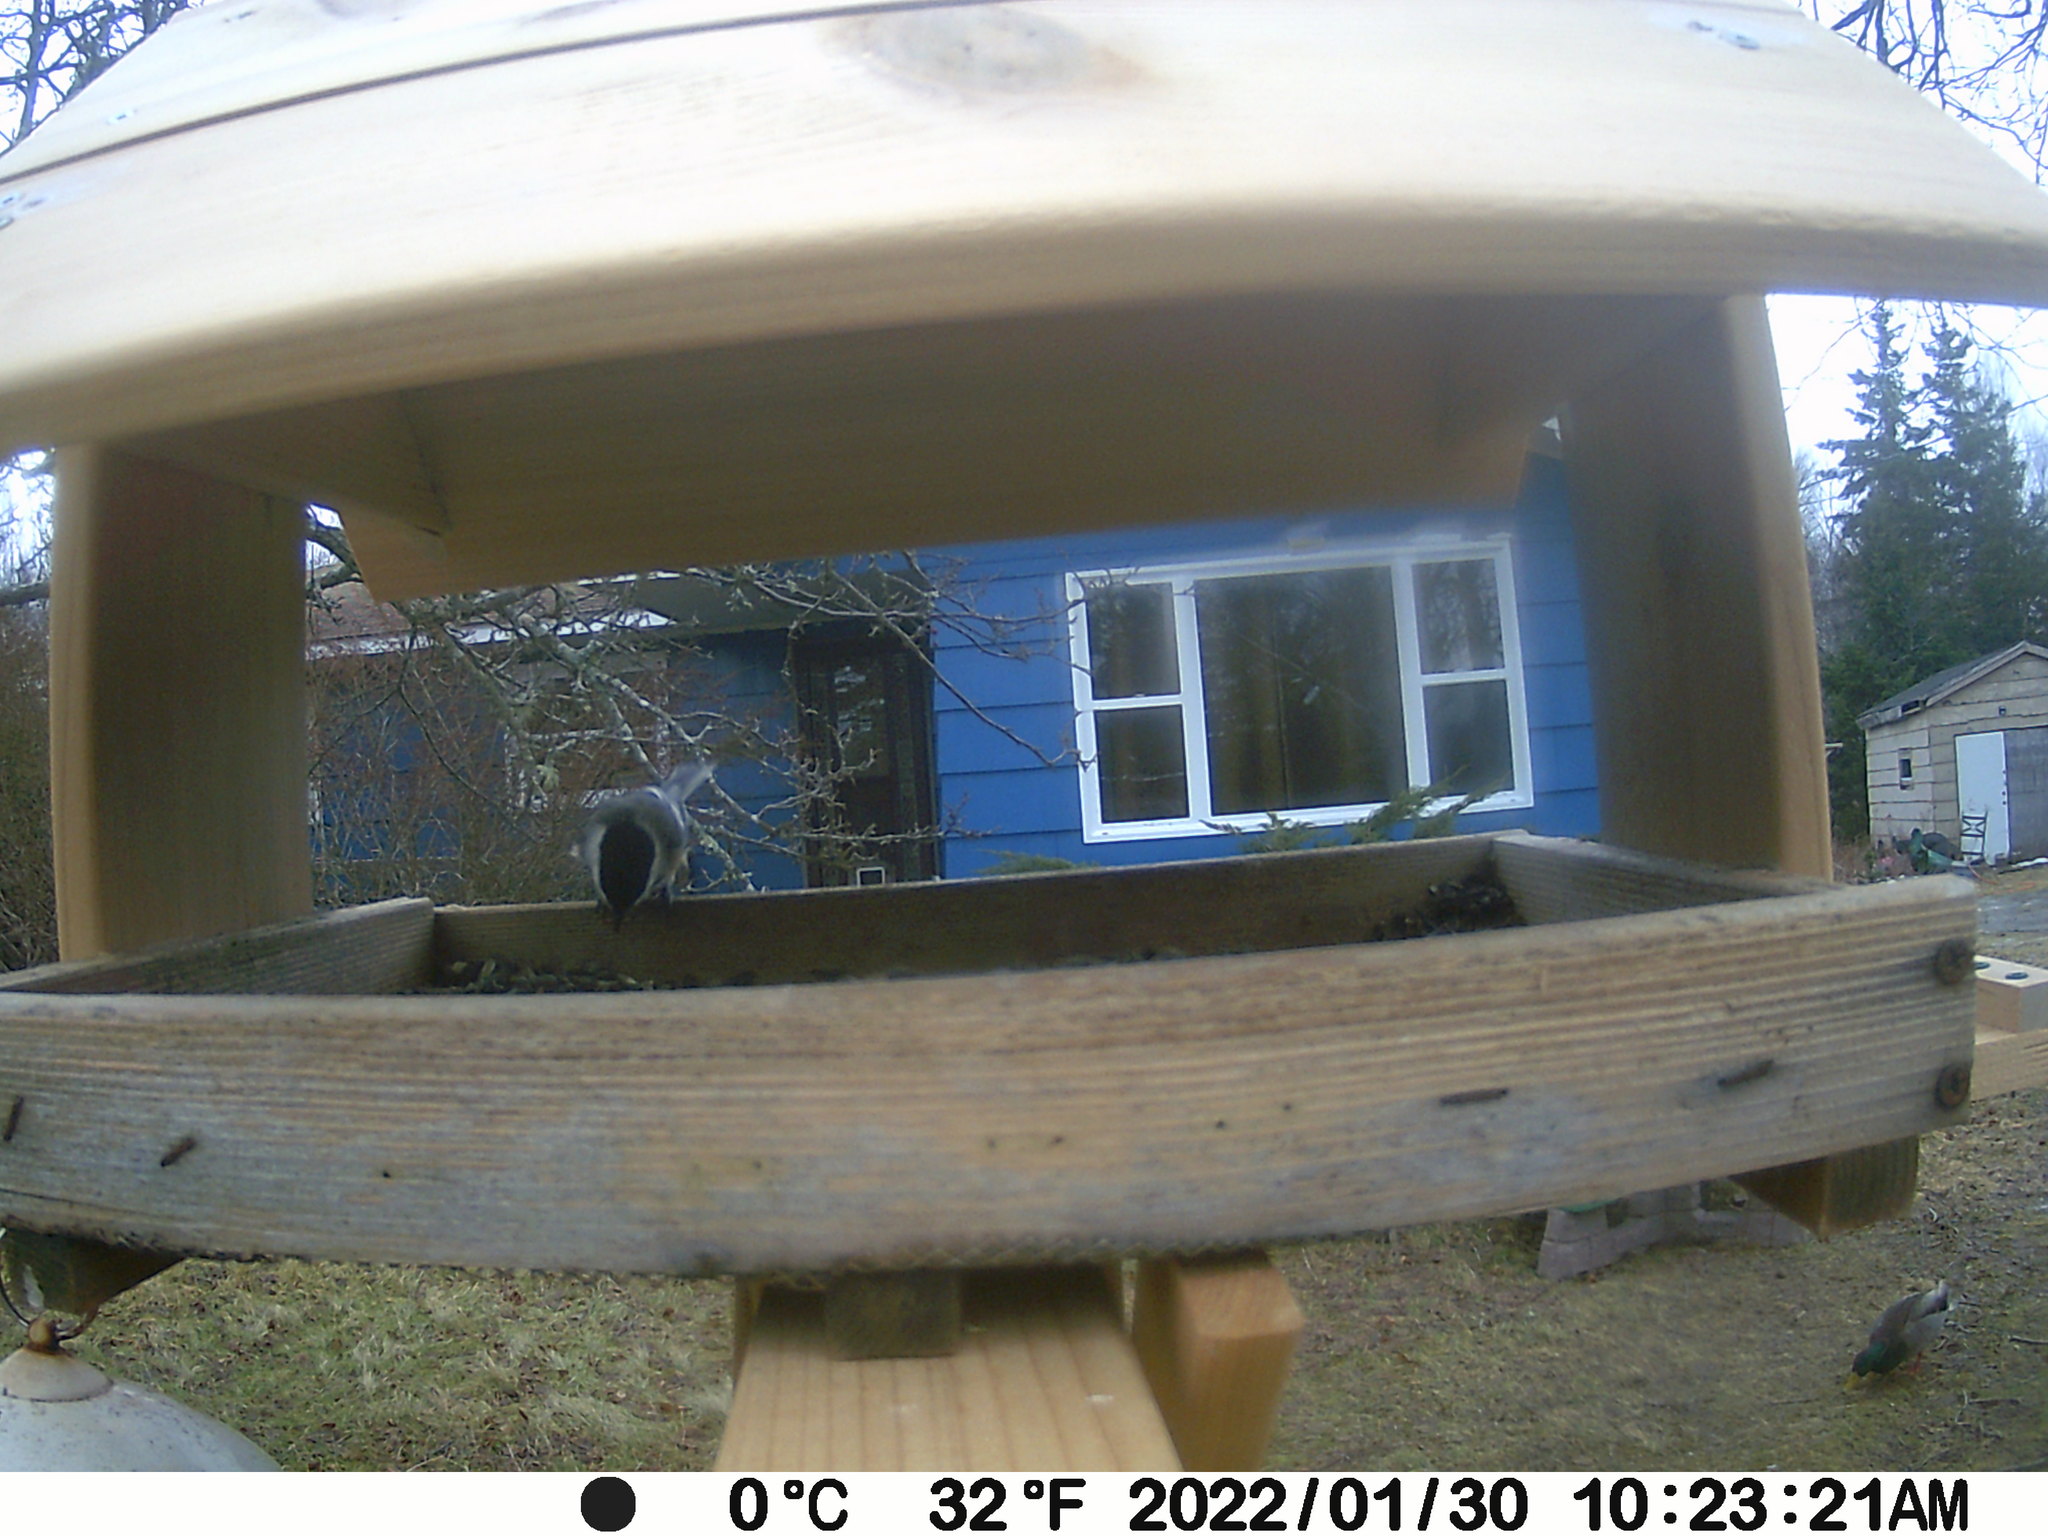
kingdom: Animalia
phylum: Chordata
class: Aves
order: Anseriformes
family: Anatidae
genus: Anas
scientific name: Anas platyrhynchos
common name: Mallard
